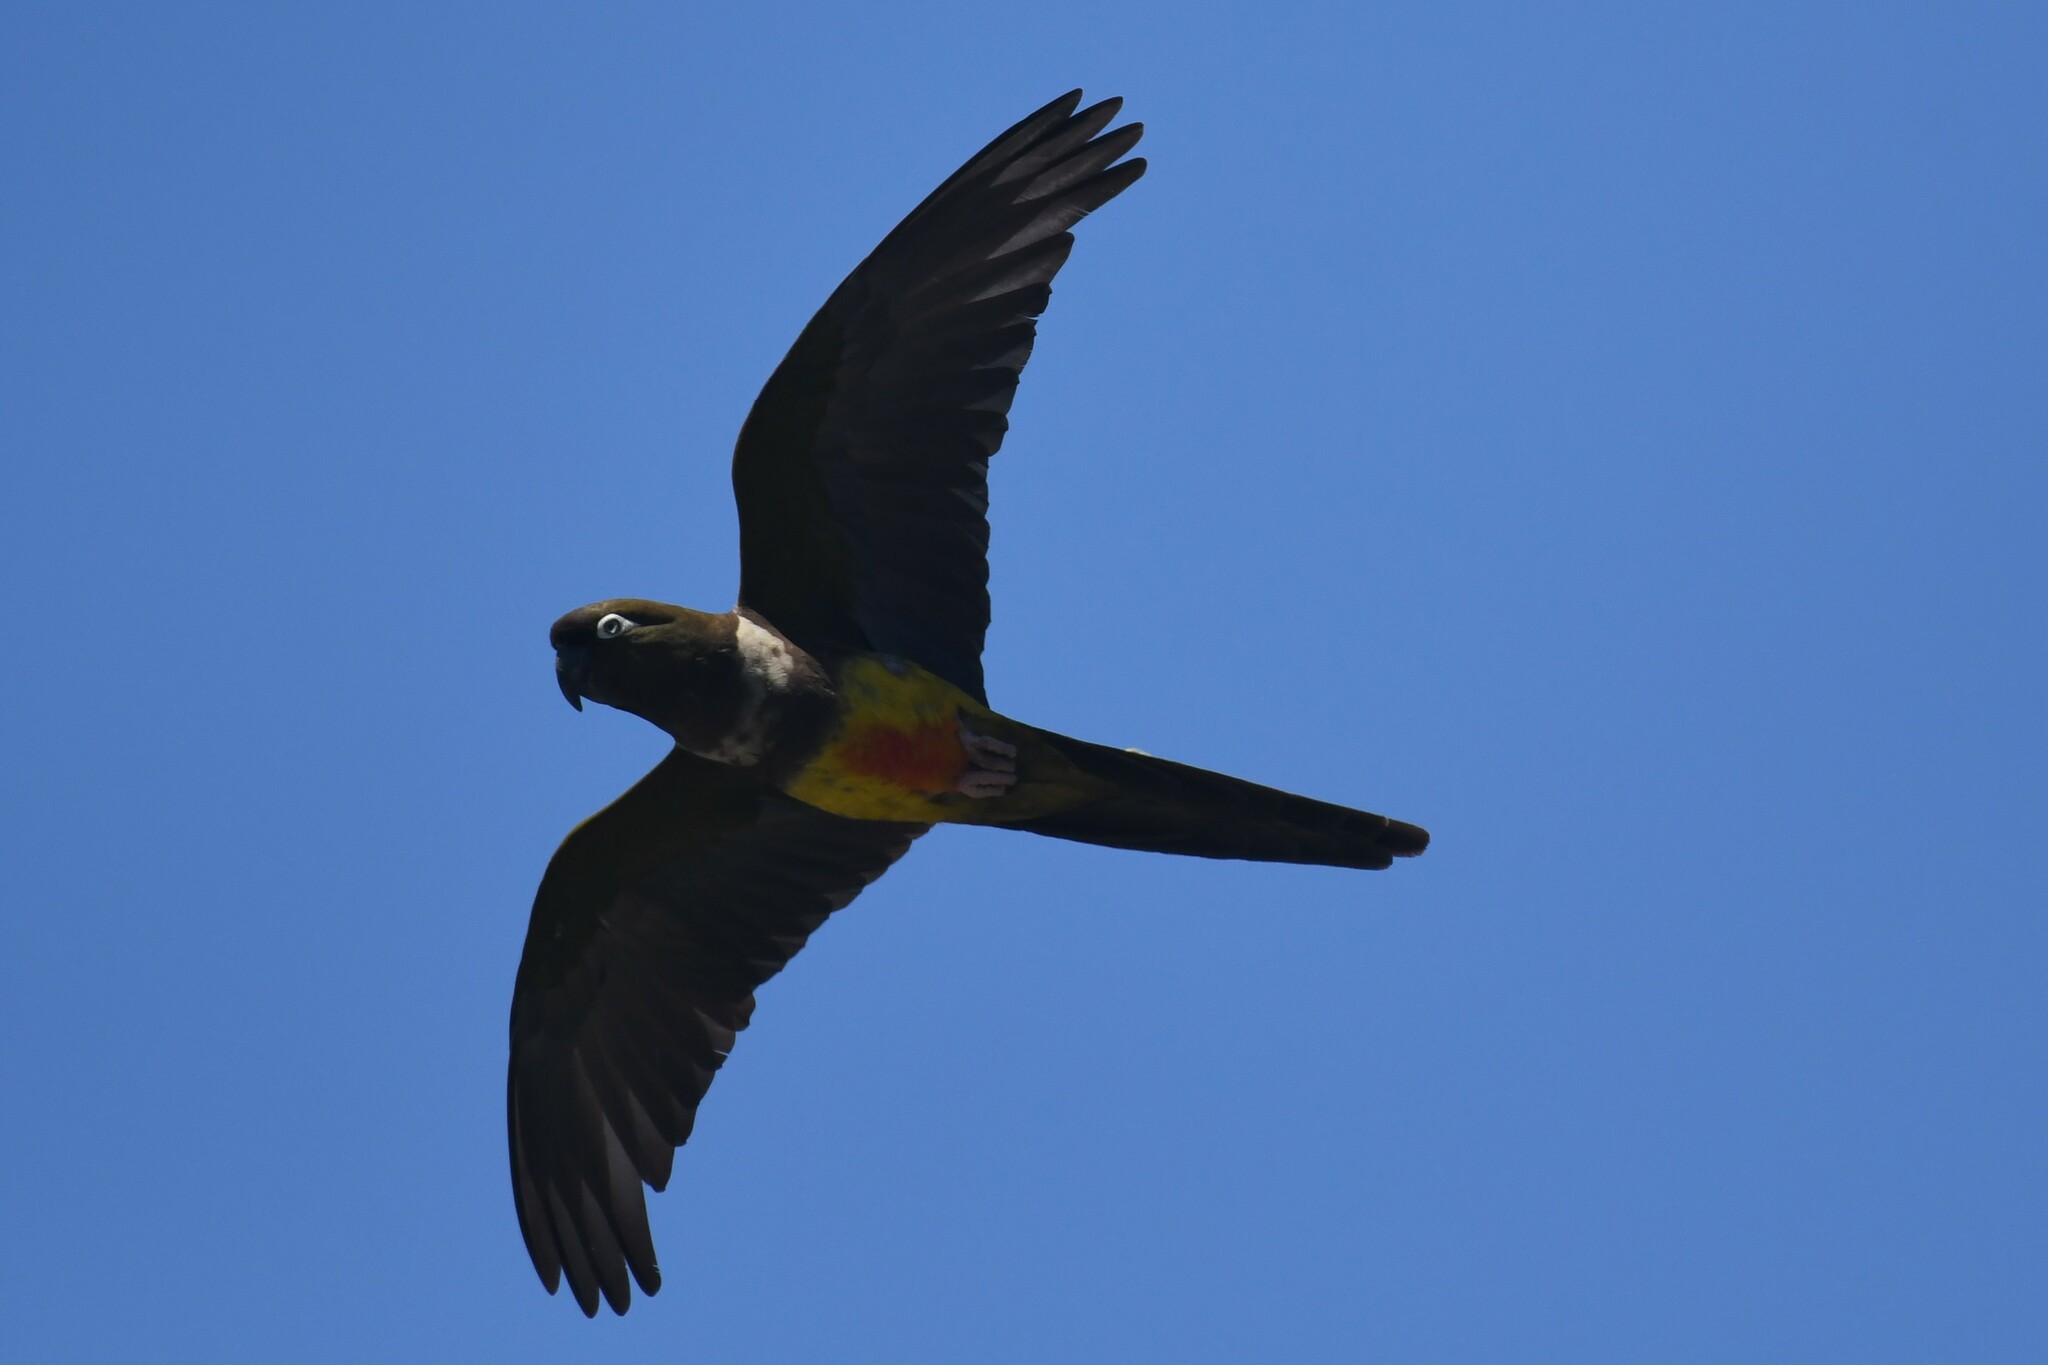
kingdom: Animalia
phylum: Chordata
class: Aves
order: Psittaciformes
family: Psittacidae
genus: Cyanoliseus
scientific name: Cyanoliseus patagonus
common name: Burrowing parrot
